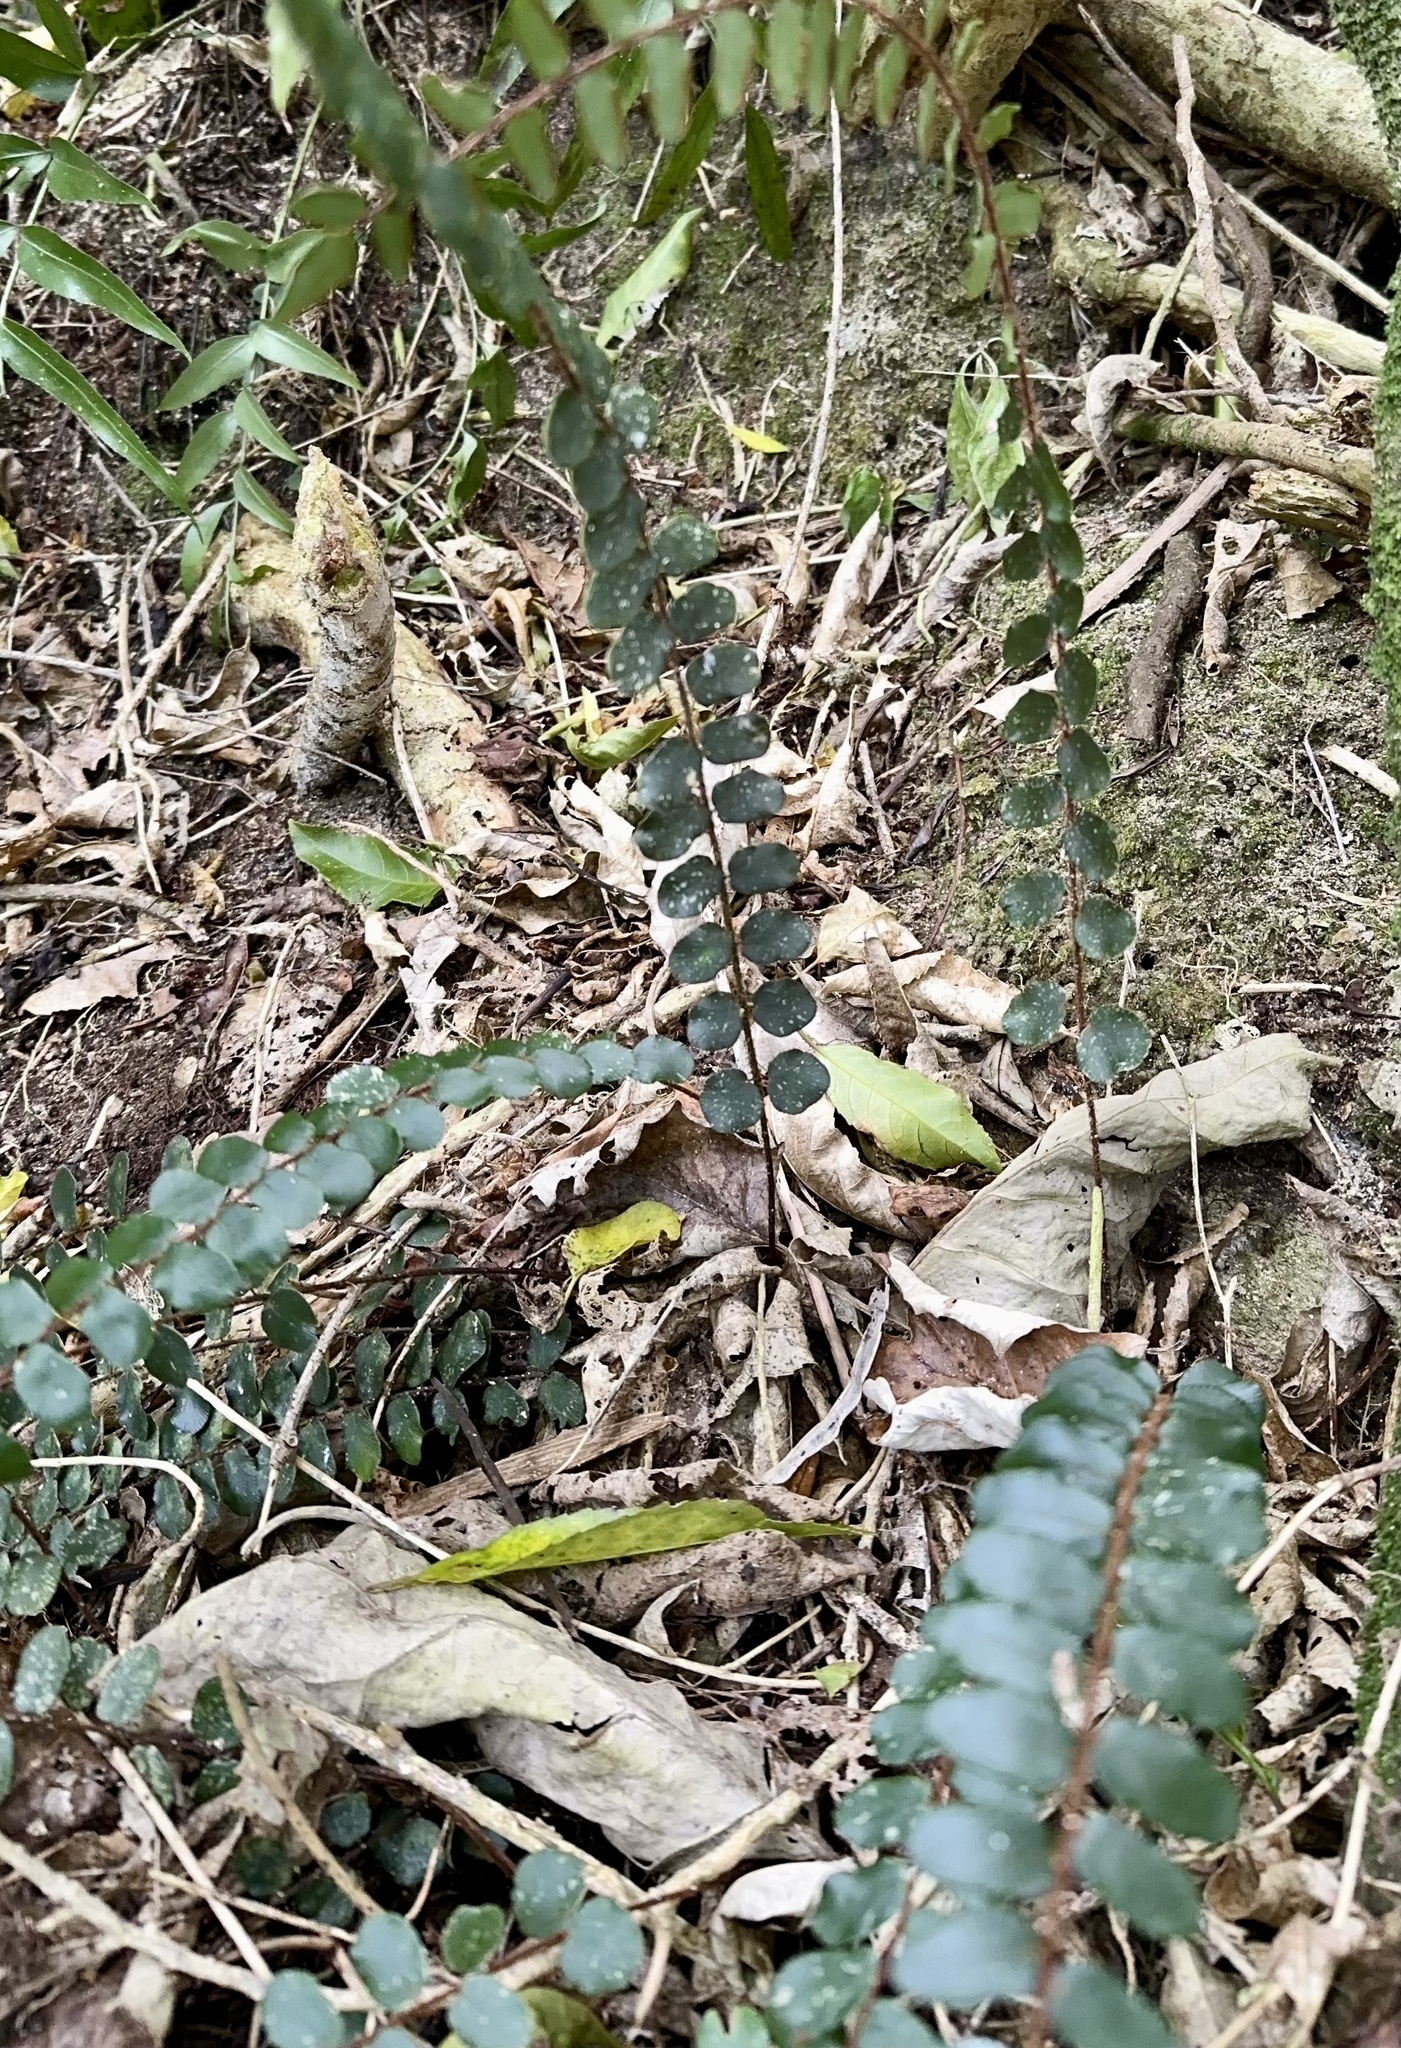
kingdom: Plantae
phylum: Tracheophyta
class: Polypodiopsida
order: Polypodiales
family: Pteridaceae
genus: Pellaea
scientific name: Pellaea rotundifolia
